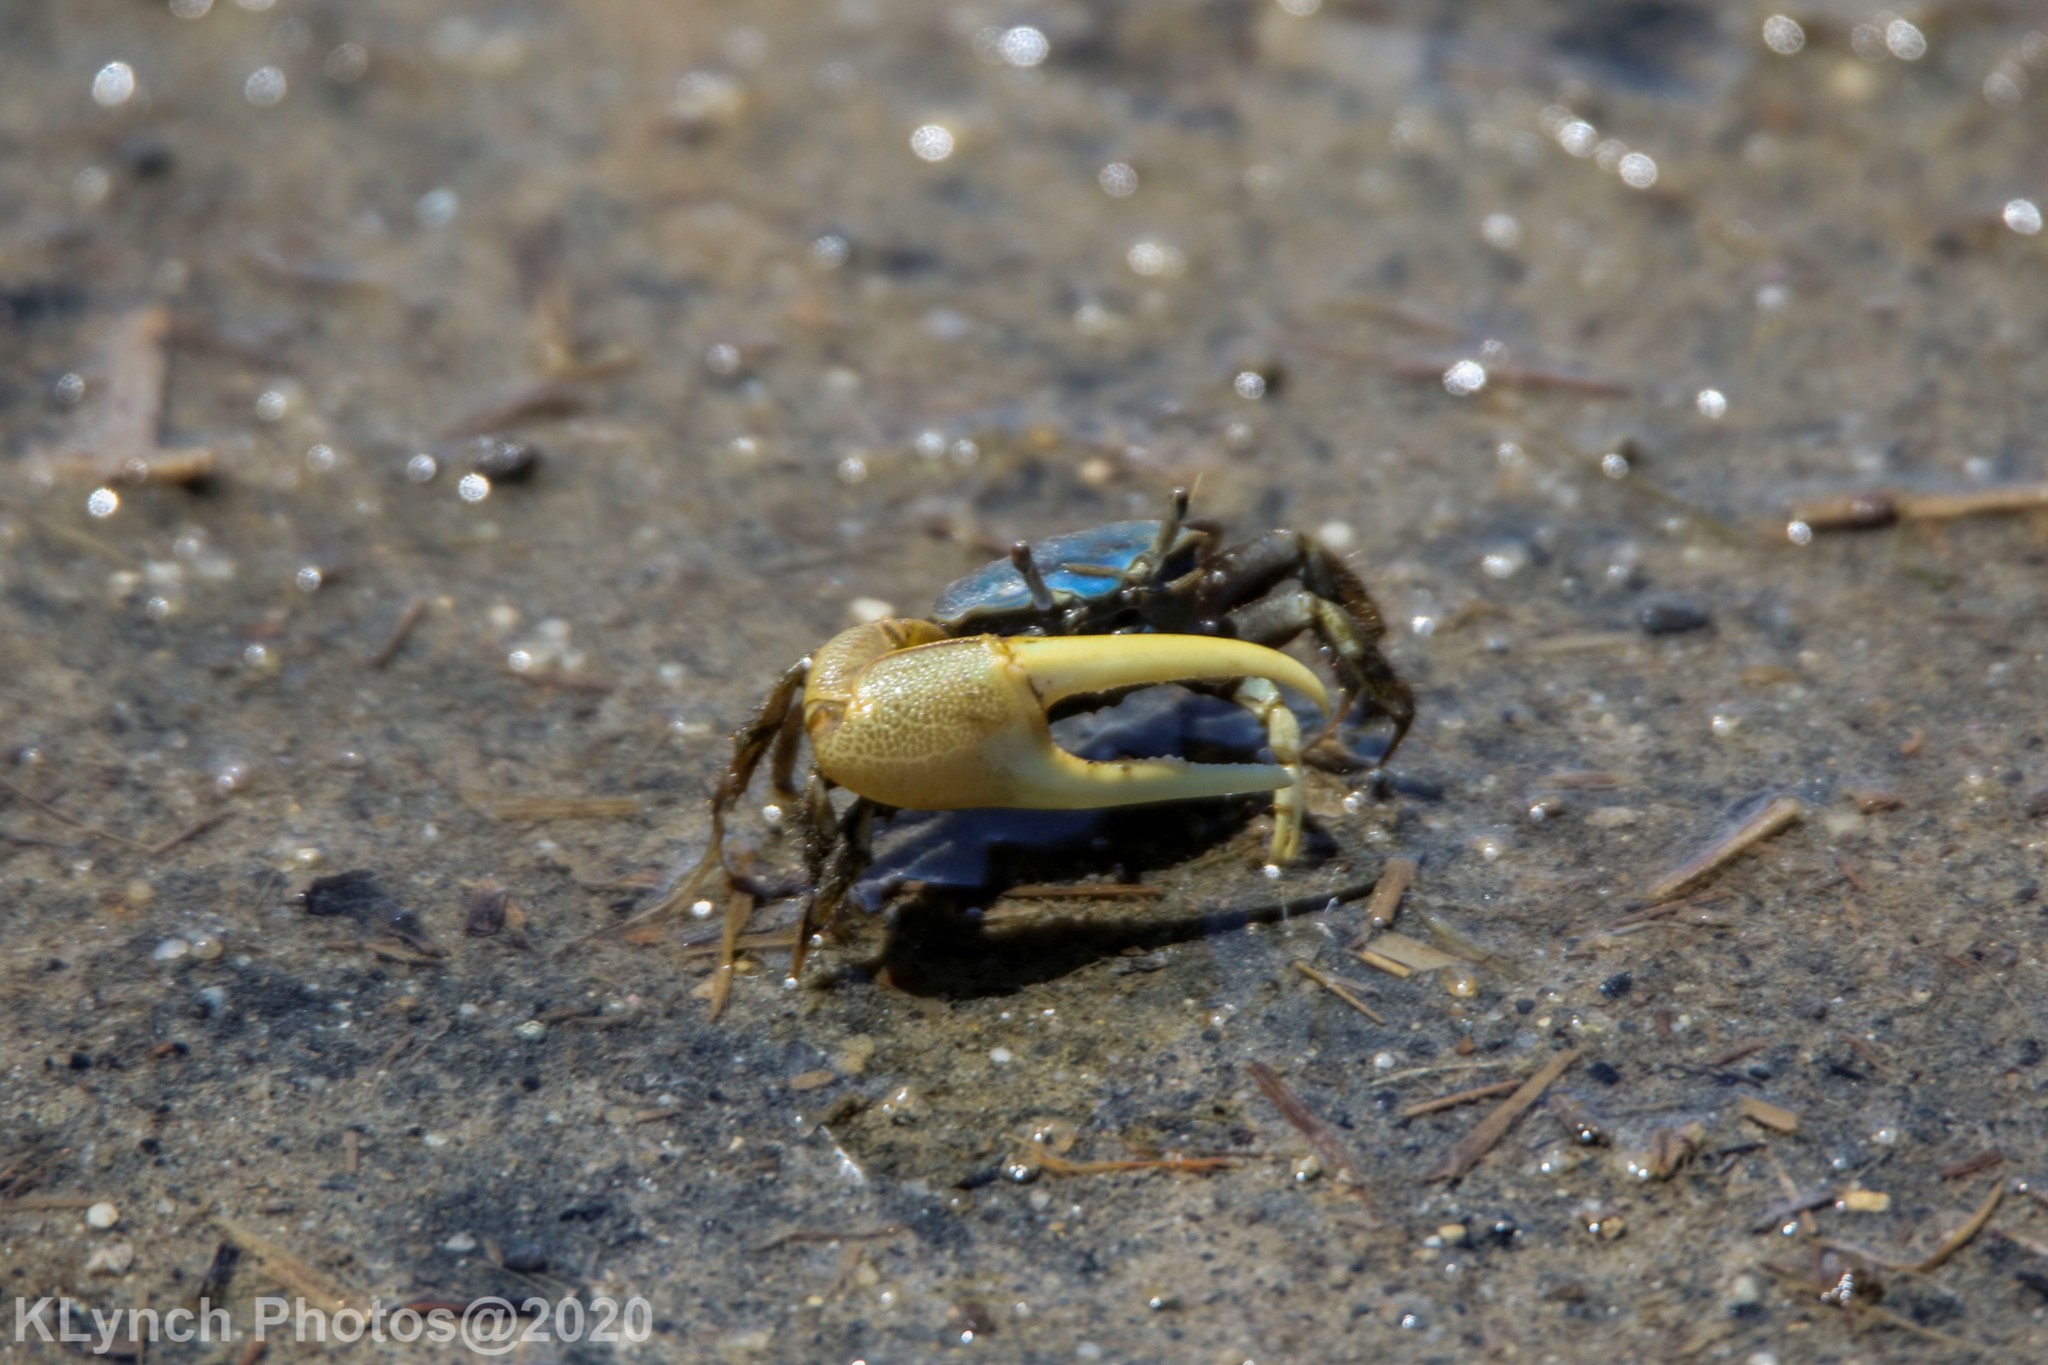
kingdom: Animalia
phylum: Arthropoda
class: Malacostraca
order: Decapoda
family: Ocypodidae
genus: Minuca
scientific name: Minuca pugnax
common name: Mud fiddler crab
